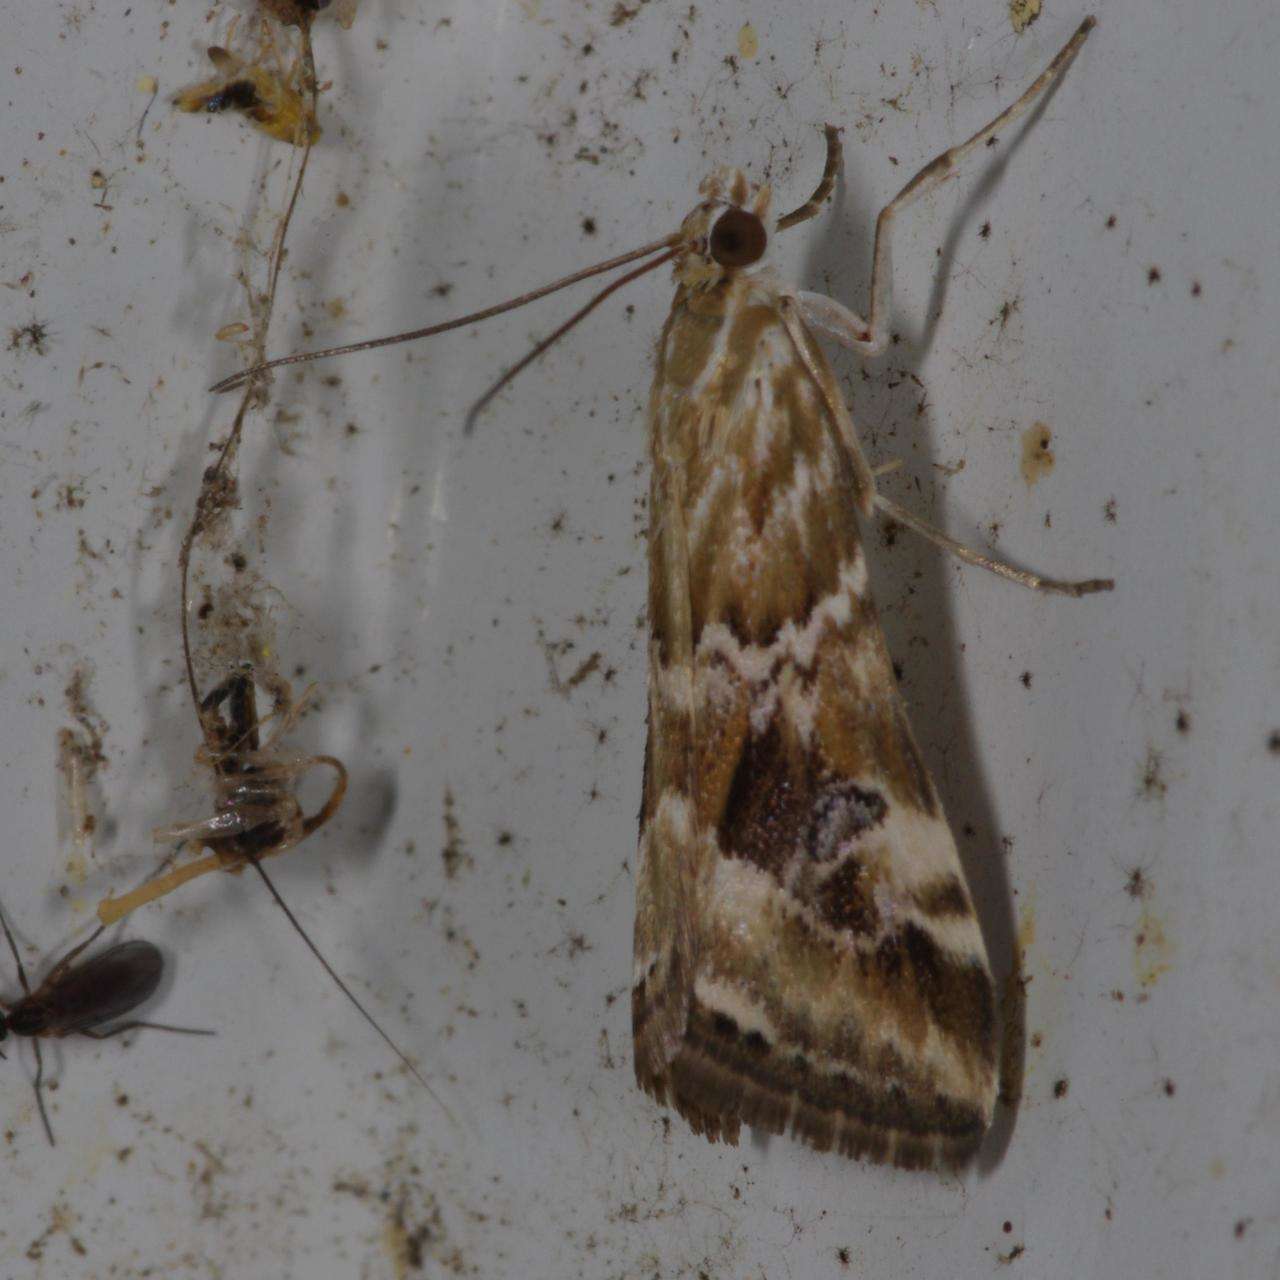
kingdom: Animalia
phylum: Arthropoda
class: Insecta
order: Lepidoptera
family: Crambidae
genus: Hellula
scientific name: Hellula hydralis
